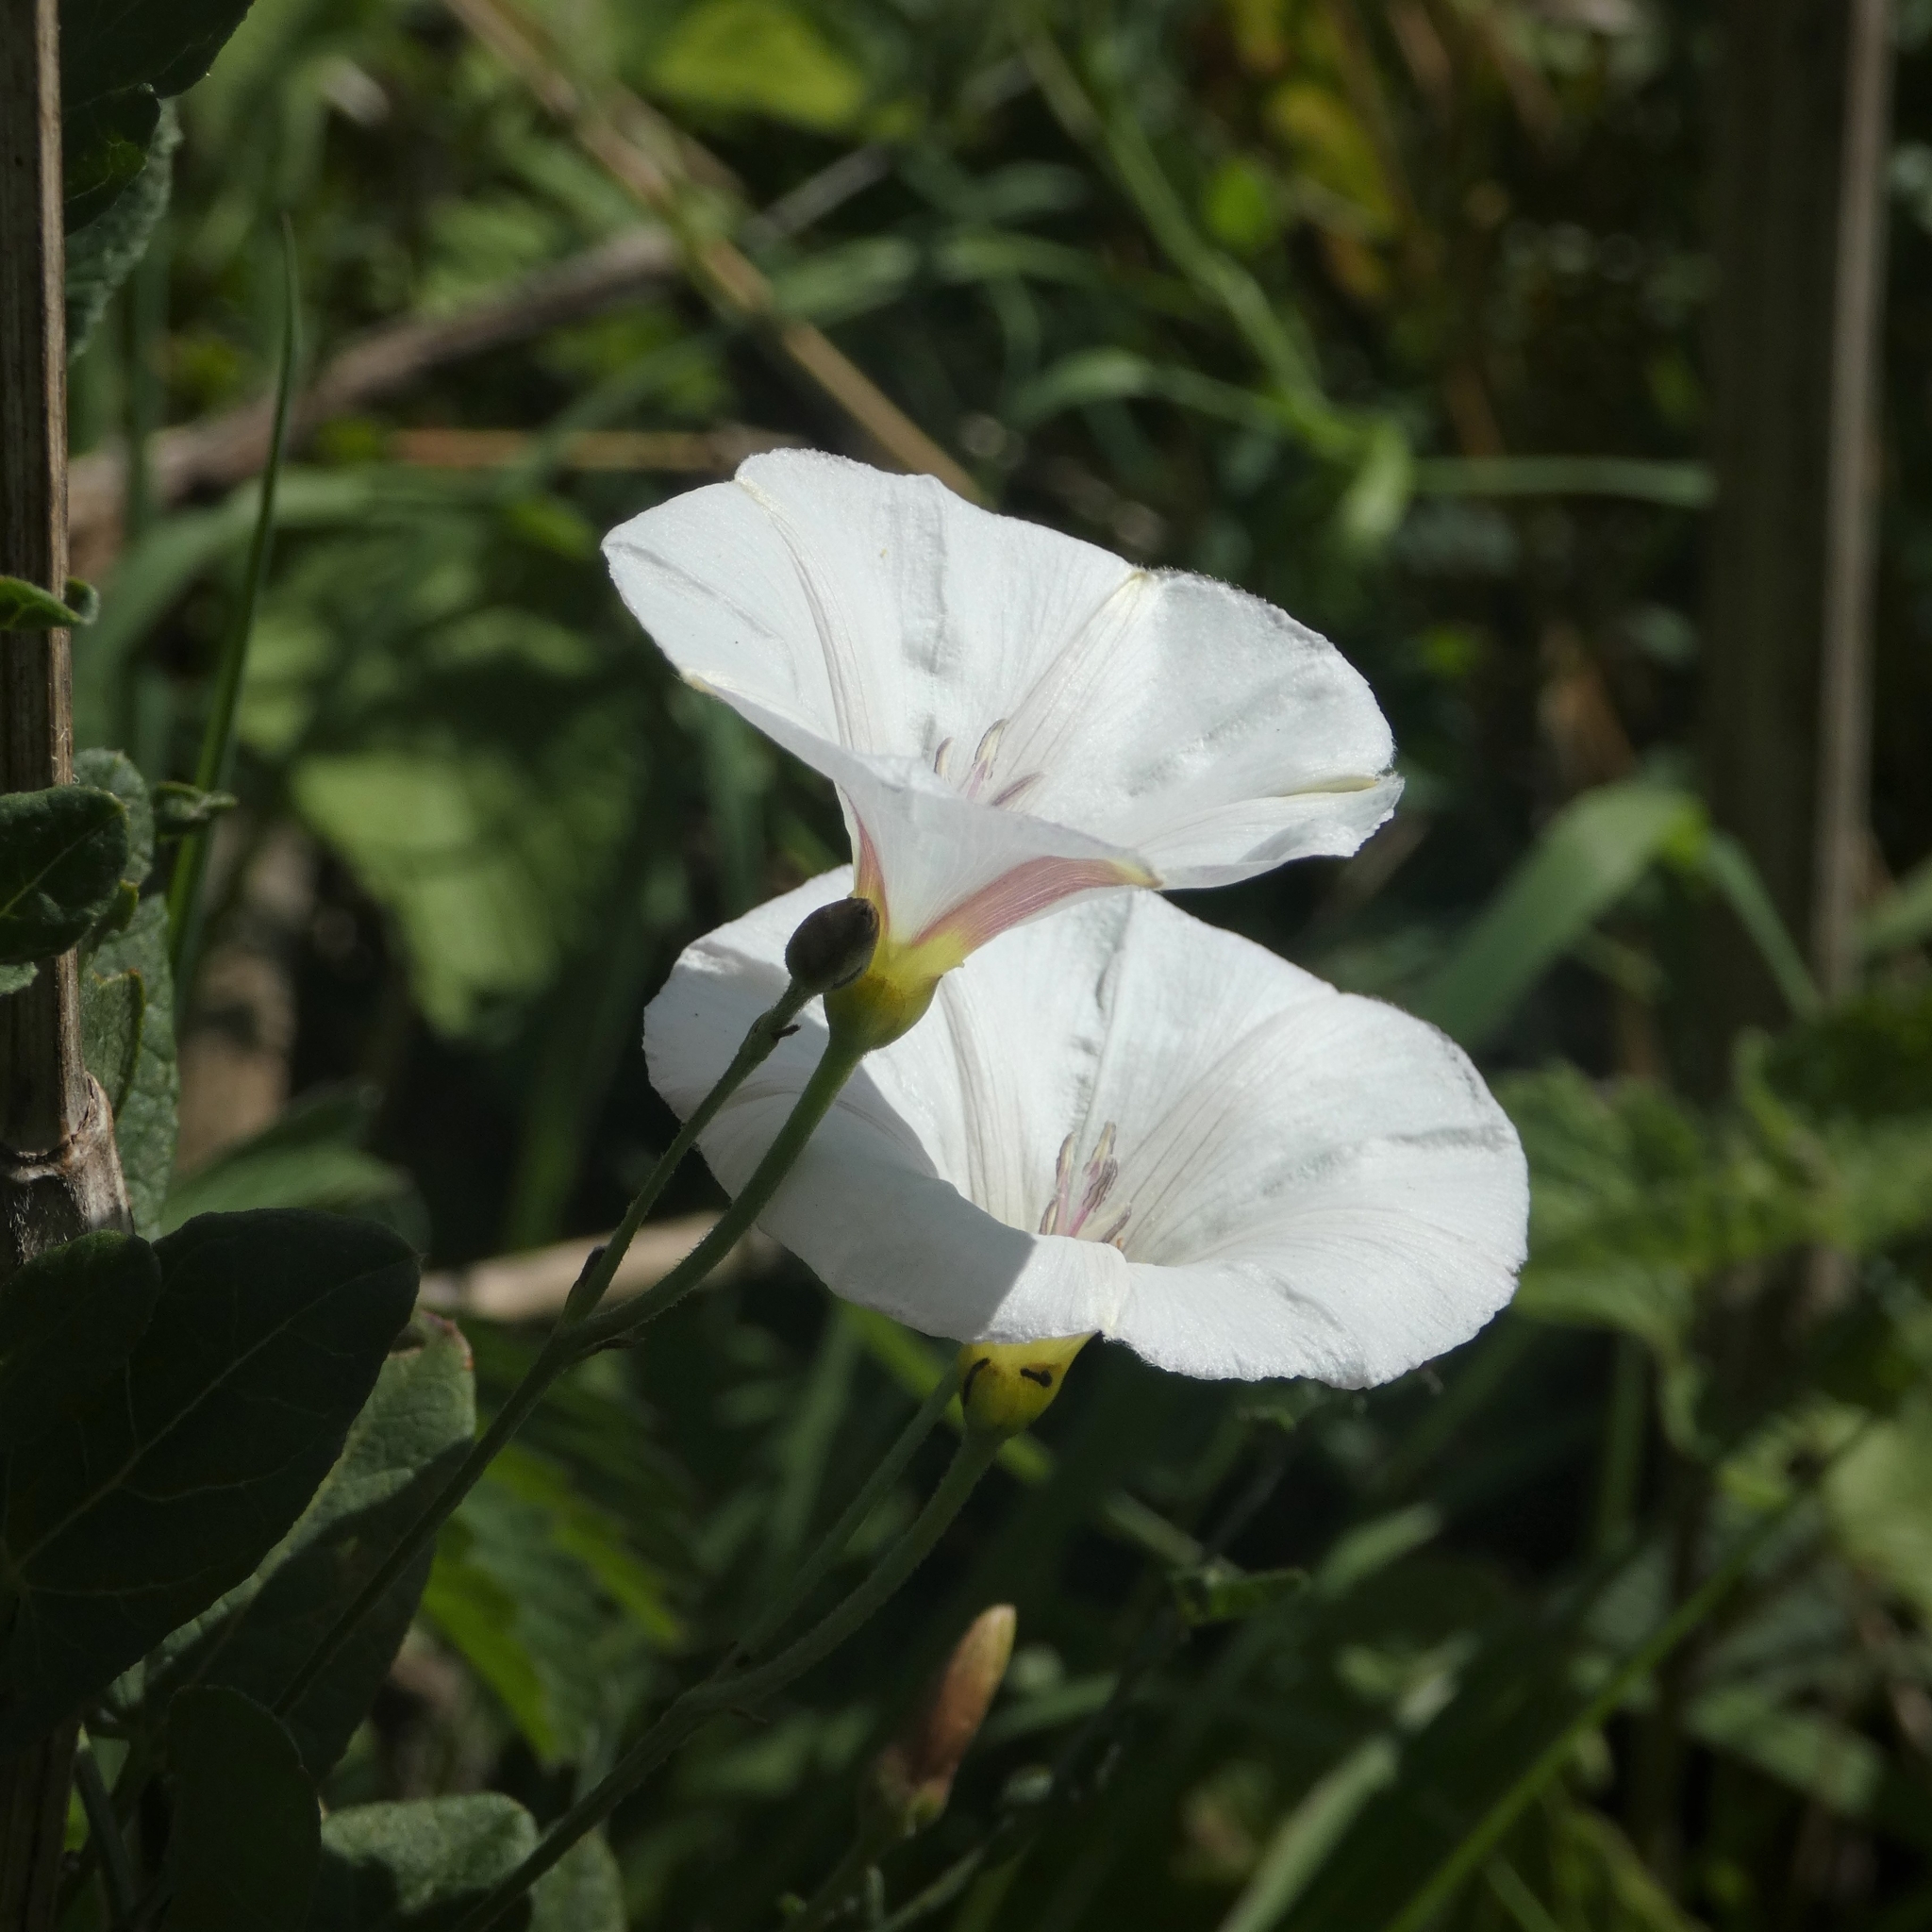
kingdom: Plantae
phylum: Tracheophyta
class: Magnoliopsida
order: Solanales
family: Convolvulaceae
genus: Convolvulus
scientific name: Convolvulus arvensis
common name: Field bindweed
